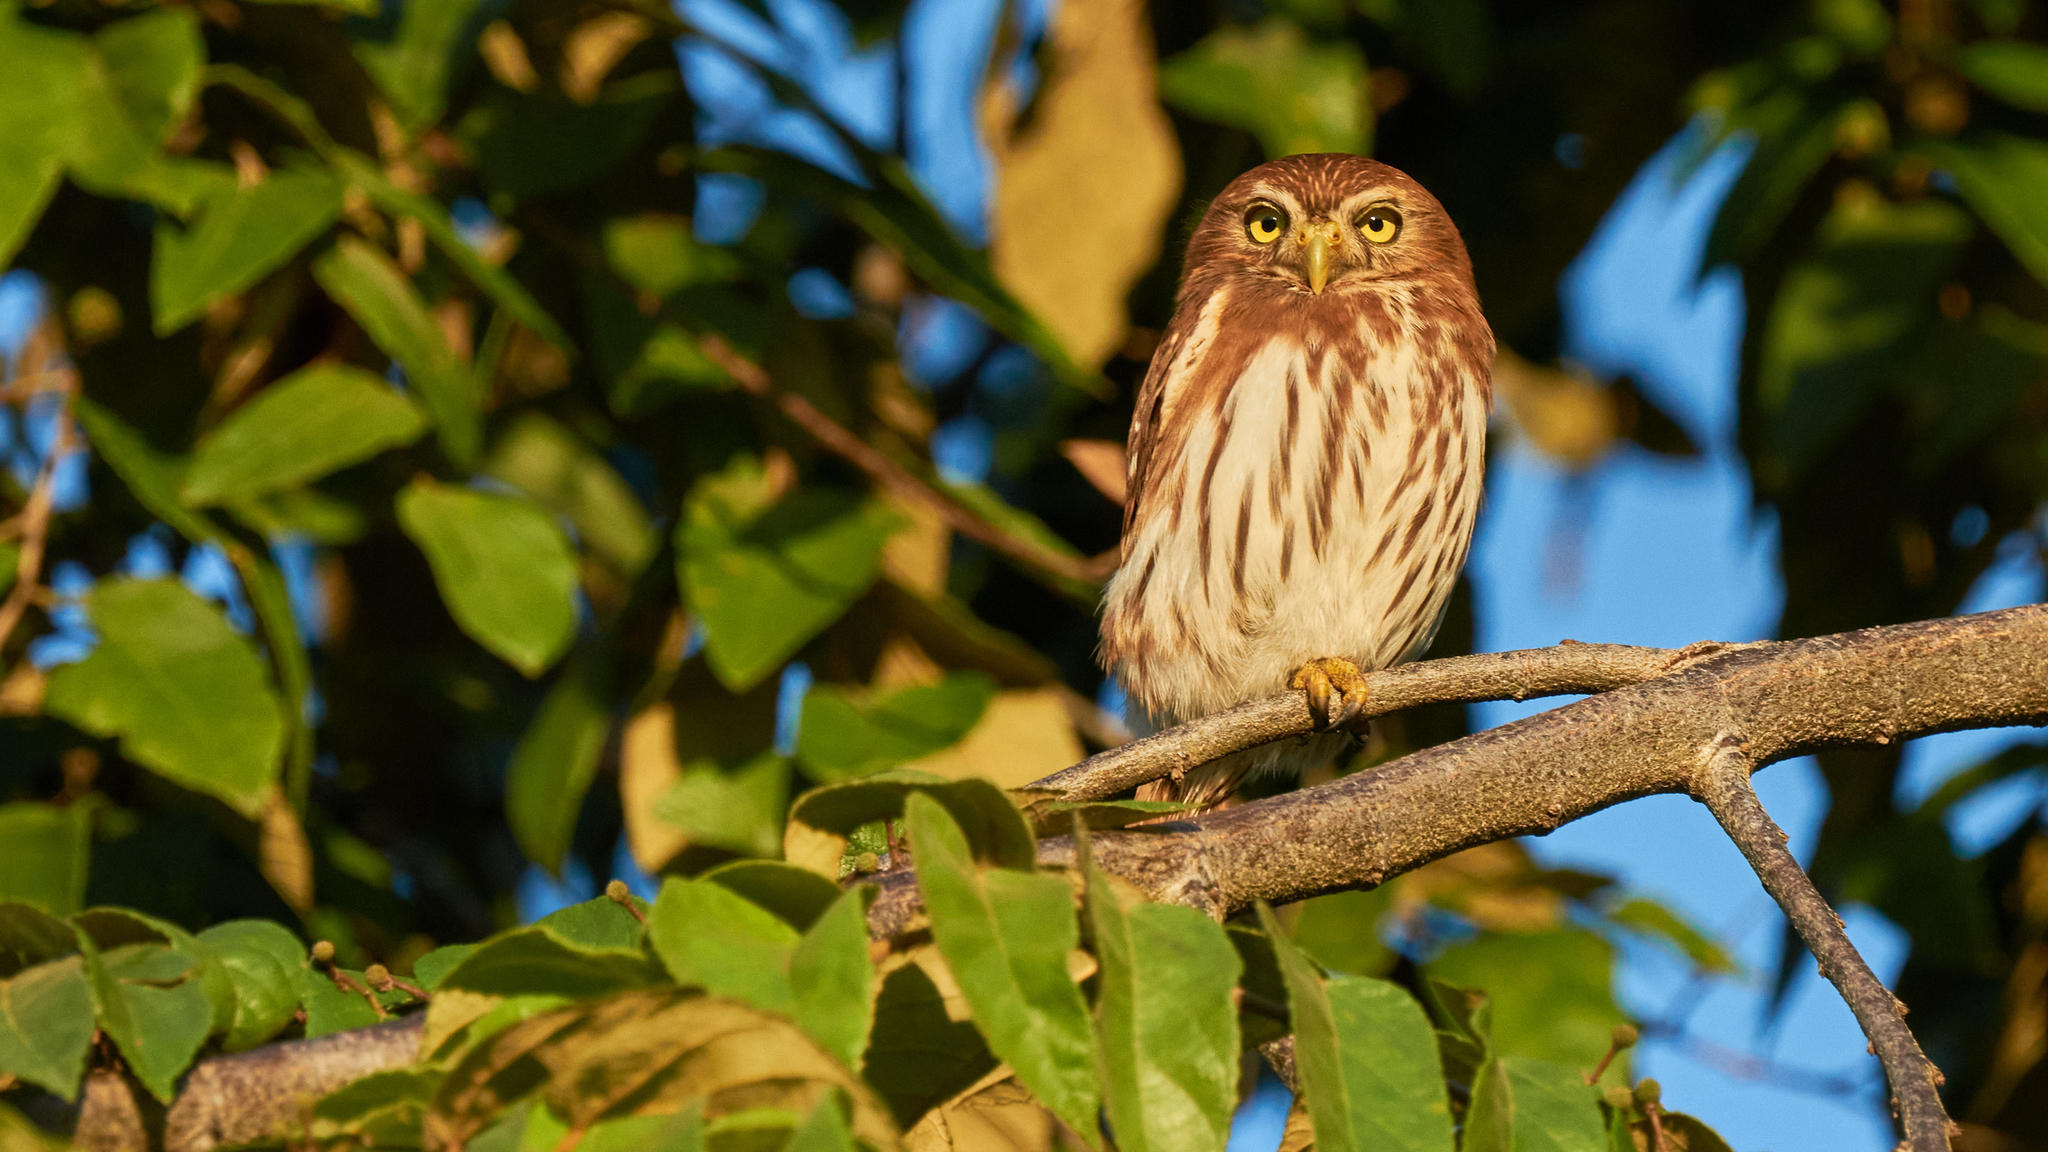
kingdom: Animalia
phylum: Chordata
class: Aves
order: Strigiformes
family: Strigidae
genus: Glaucidium
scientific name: Glaucidium brasilianum
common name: Ferruginous pygmy-owl
